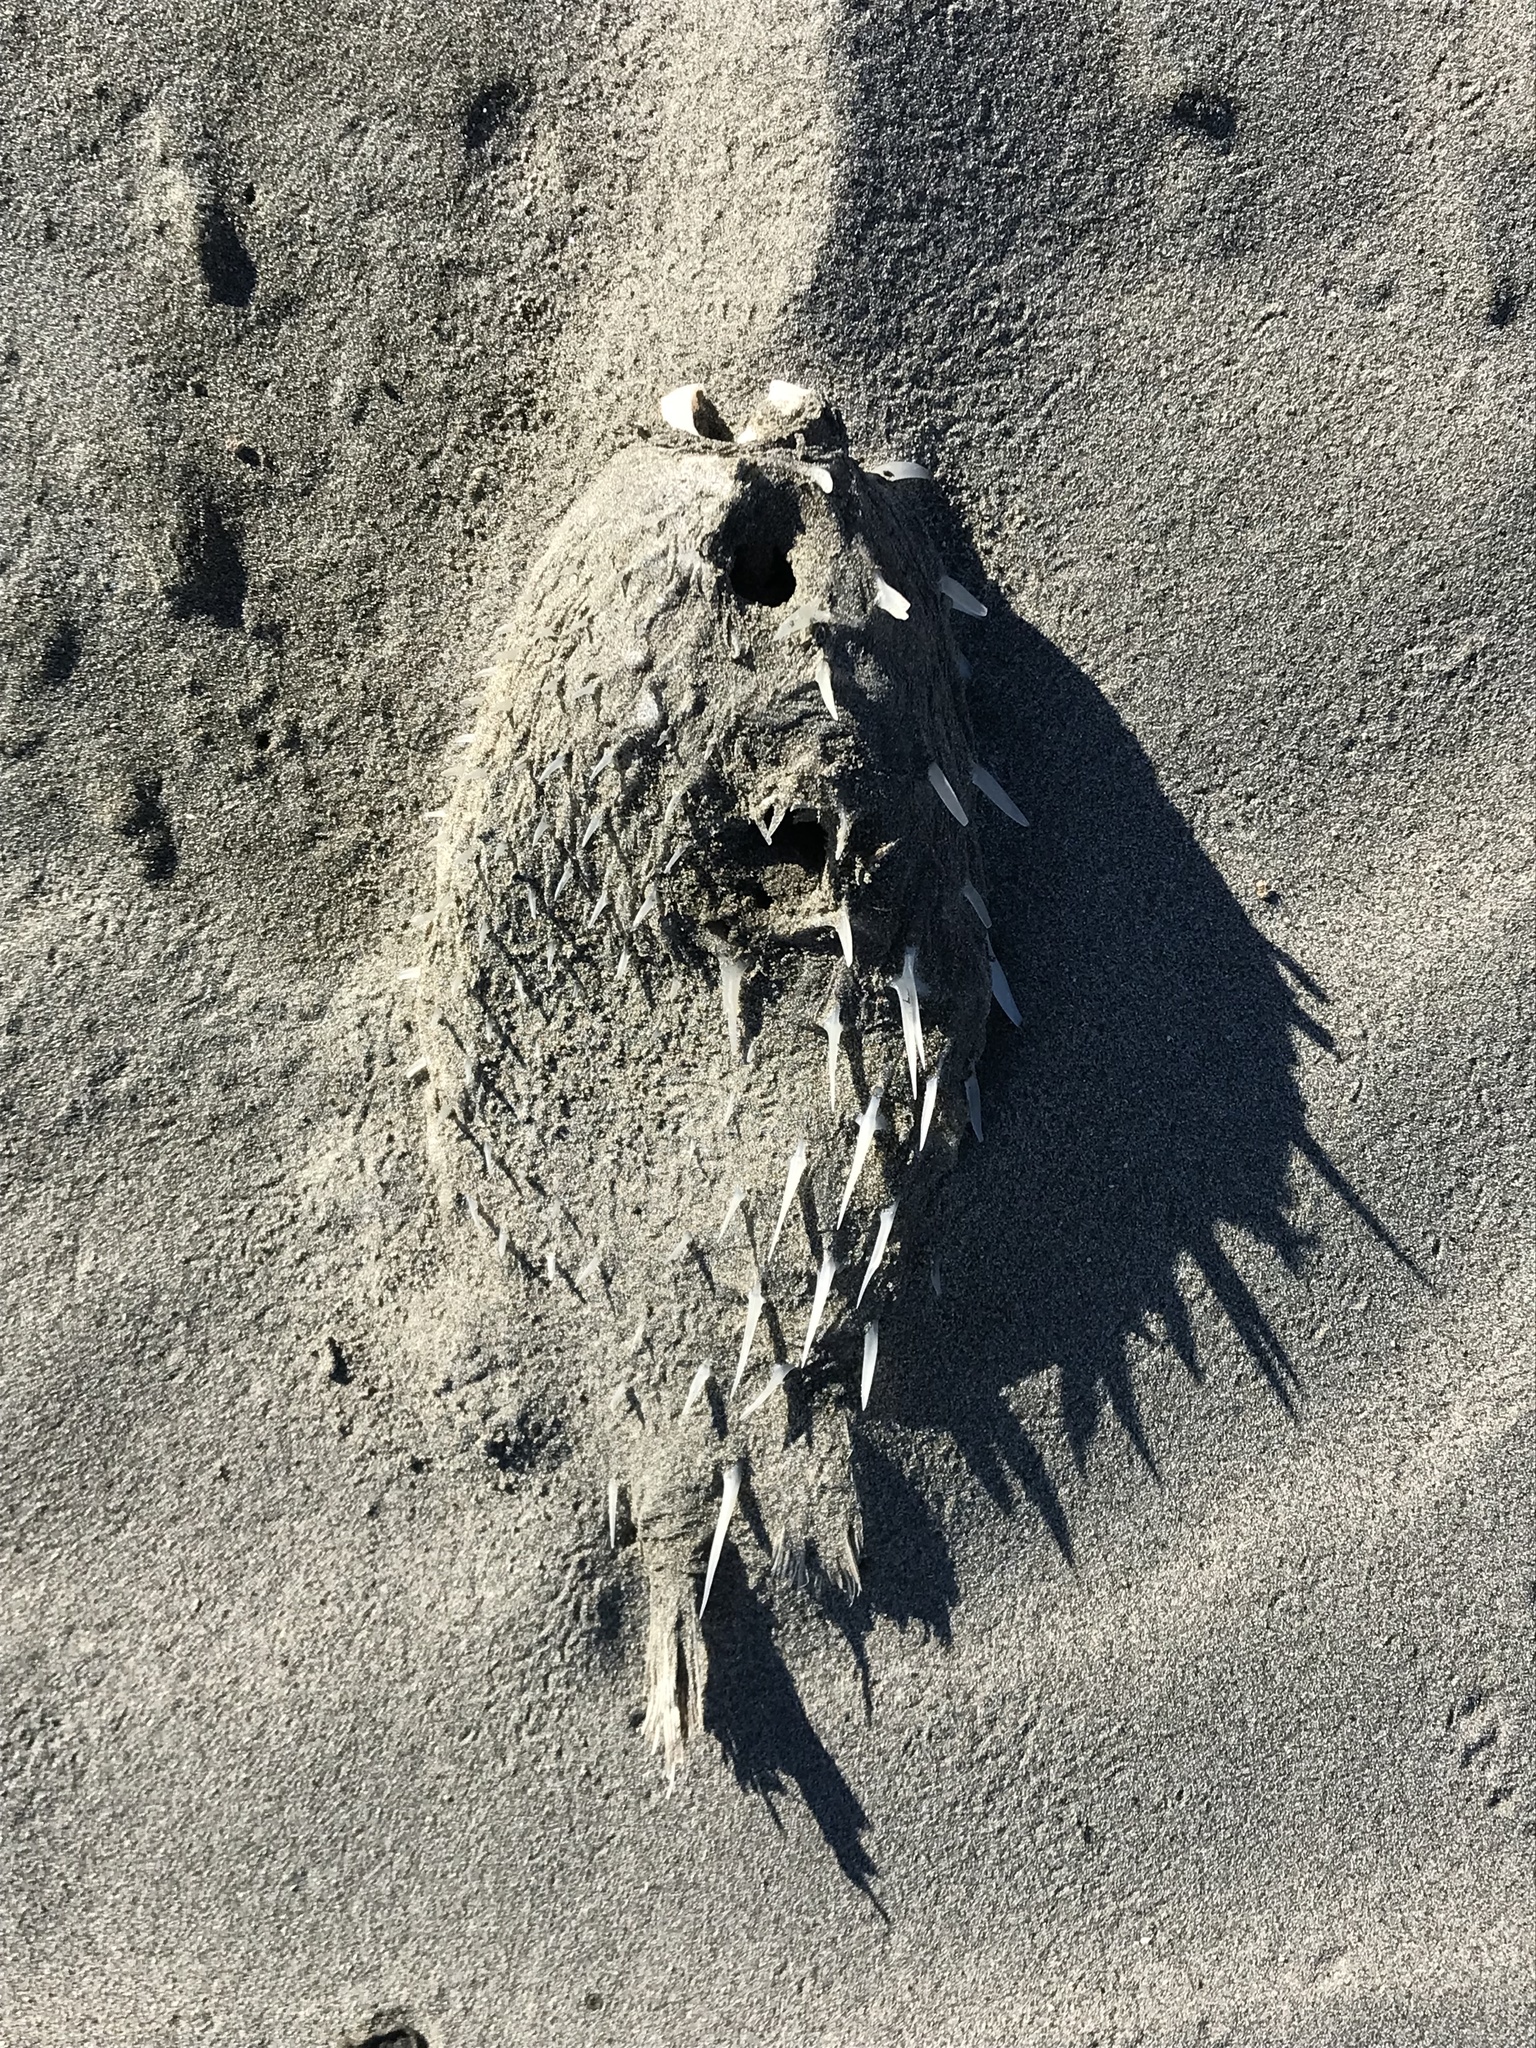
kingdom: Animalia
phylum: Chordata
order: Tetraodontiformes
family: Diodontidae
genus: Allomycterus
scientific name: Allomycterus pilatus
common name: No common name
